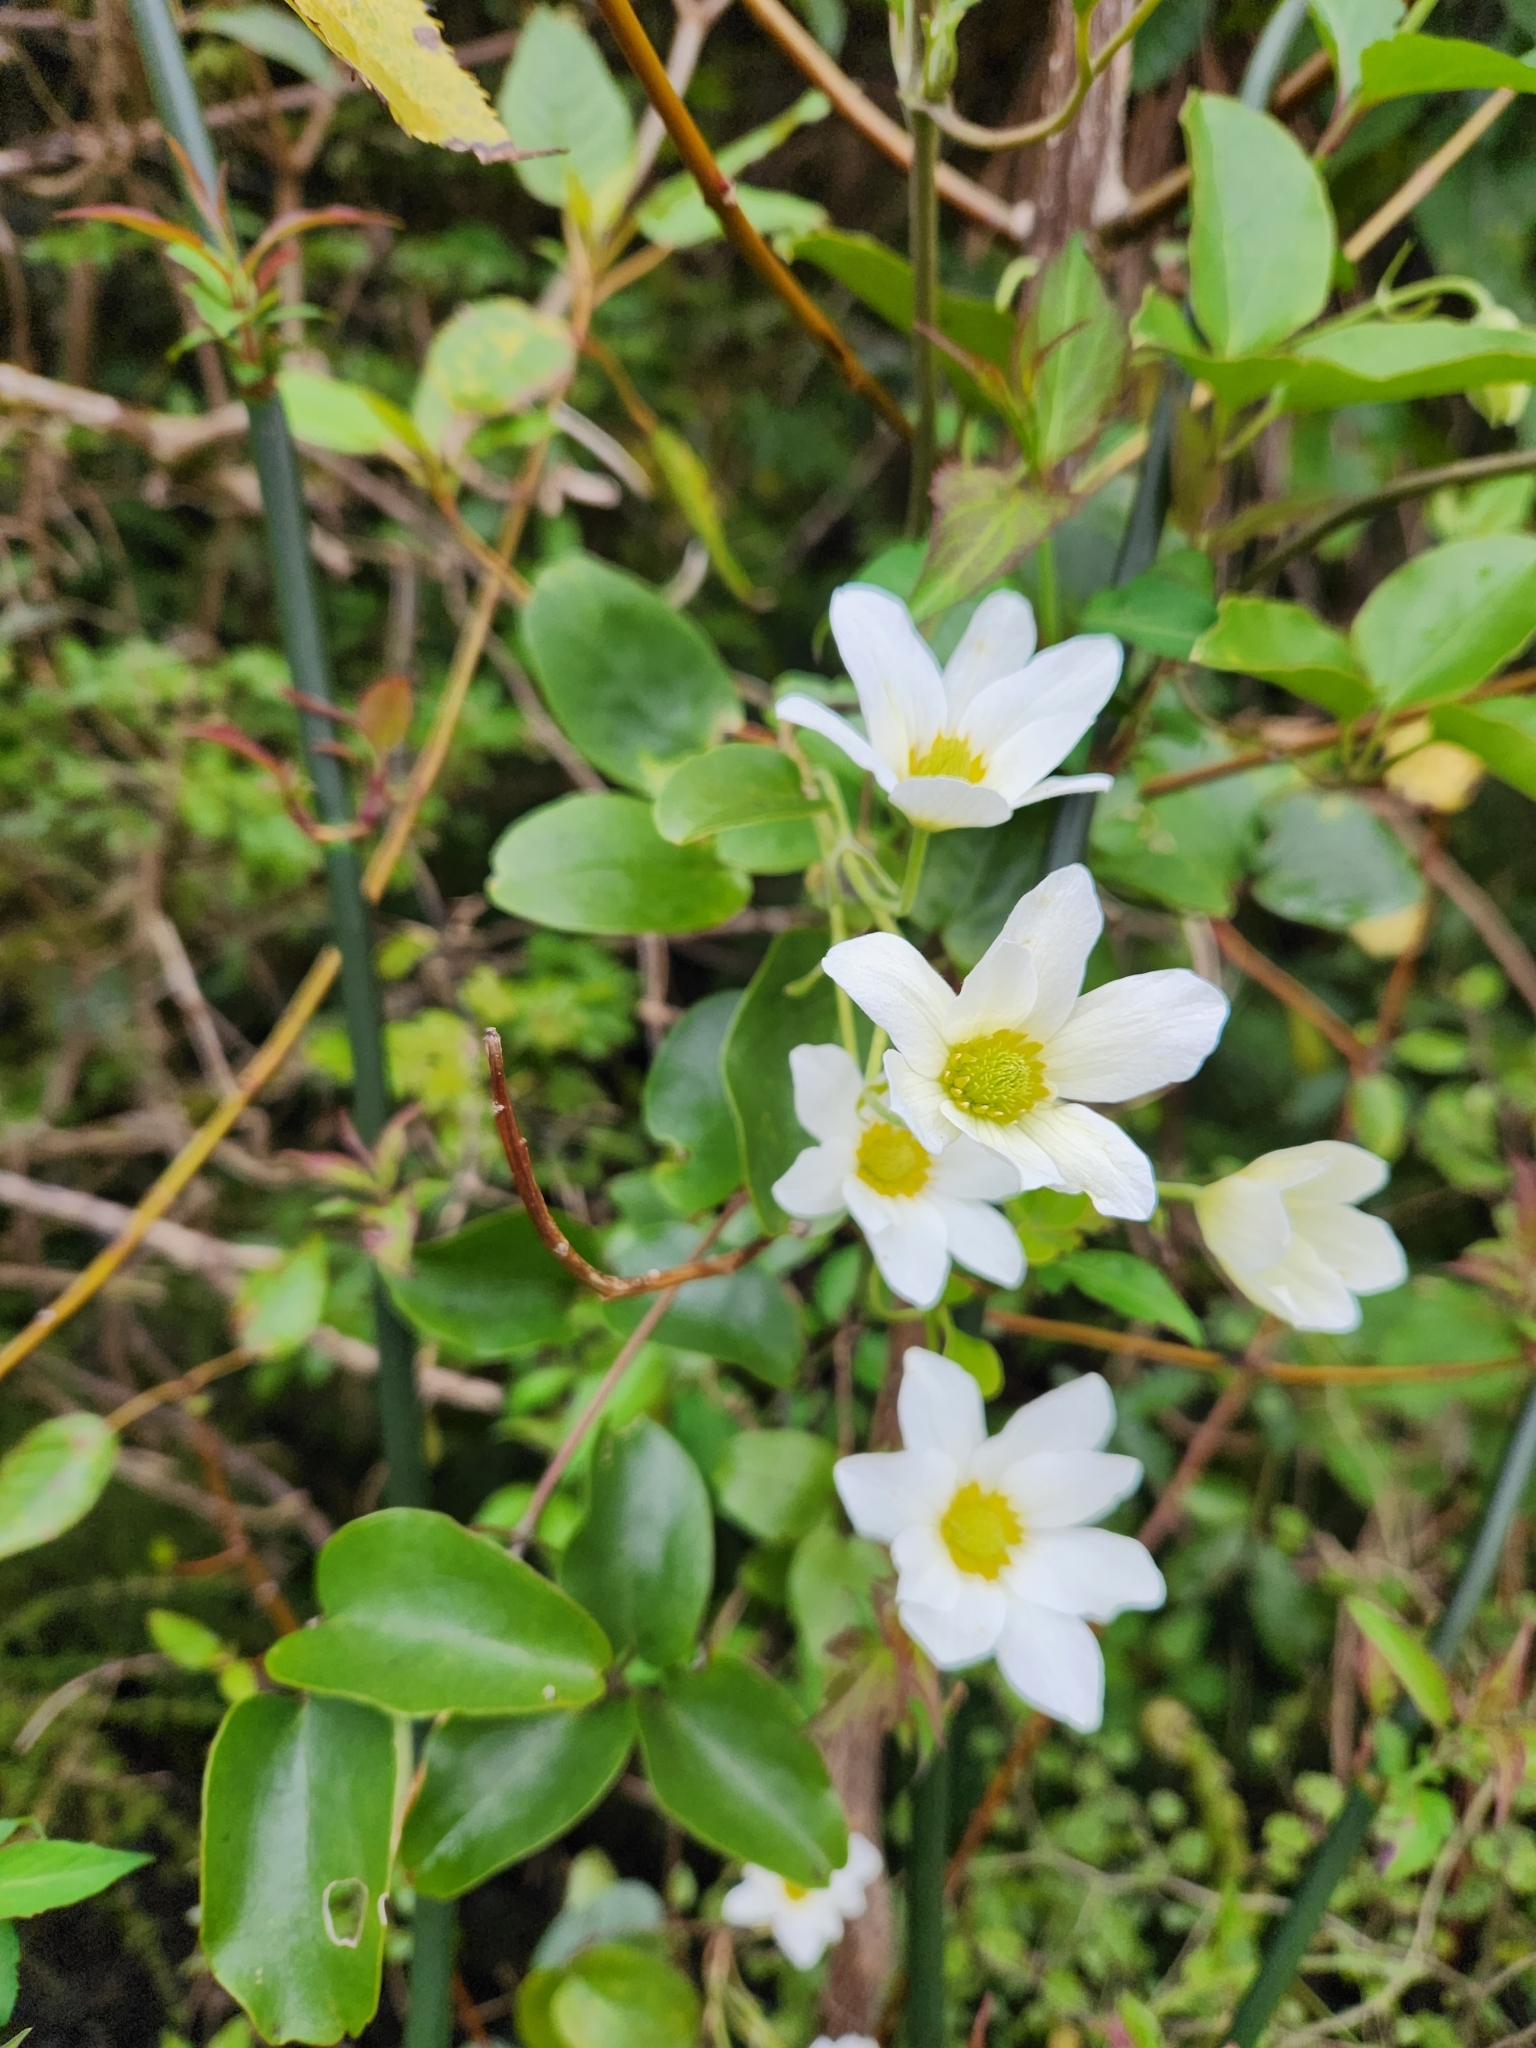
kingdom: Plantae
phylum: Tracheophyta
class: Magnoliopsida
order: Ranunculales
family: Ranunculaceae
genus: Clematis
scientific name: Clematis paniculata
